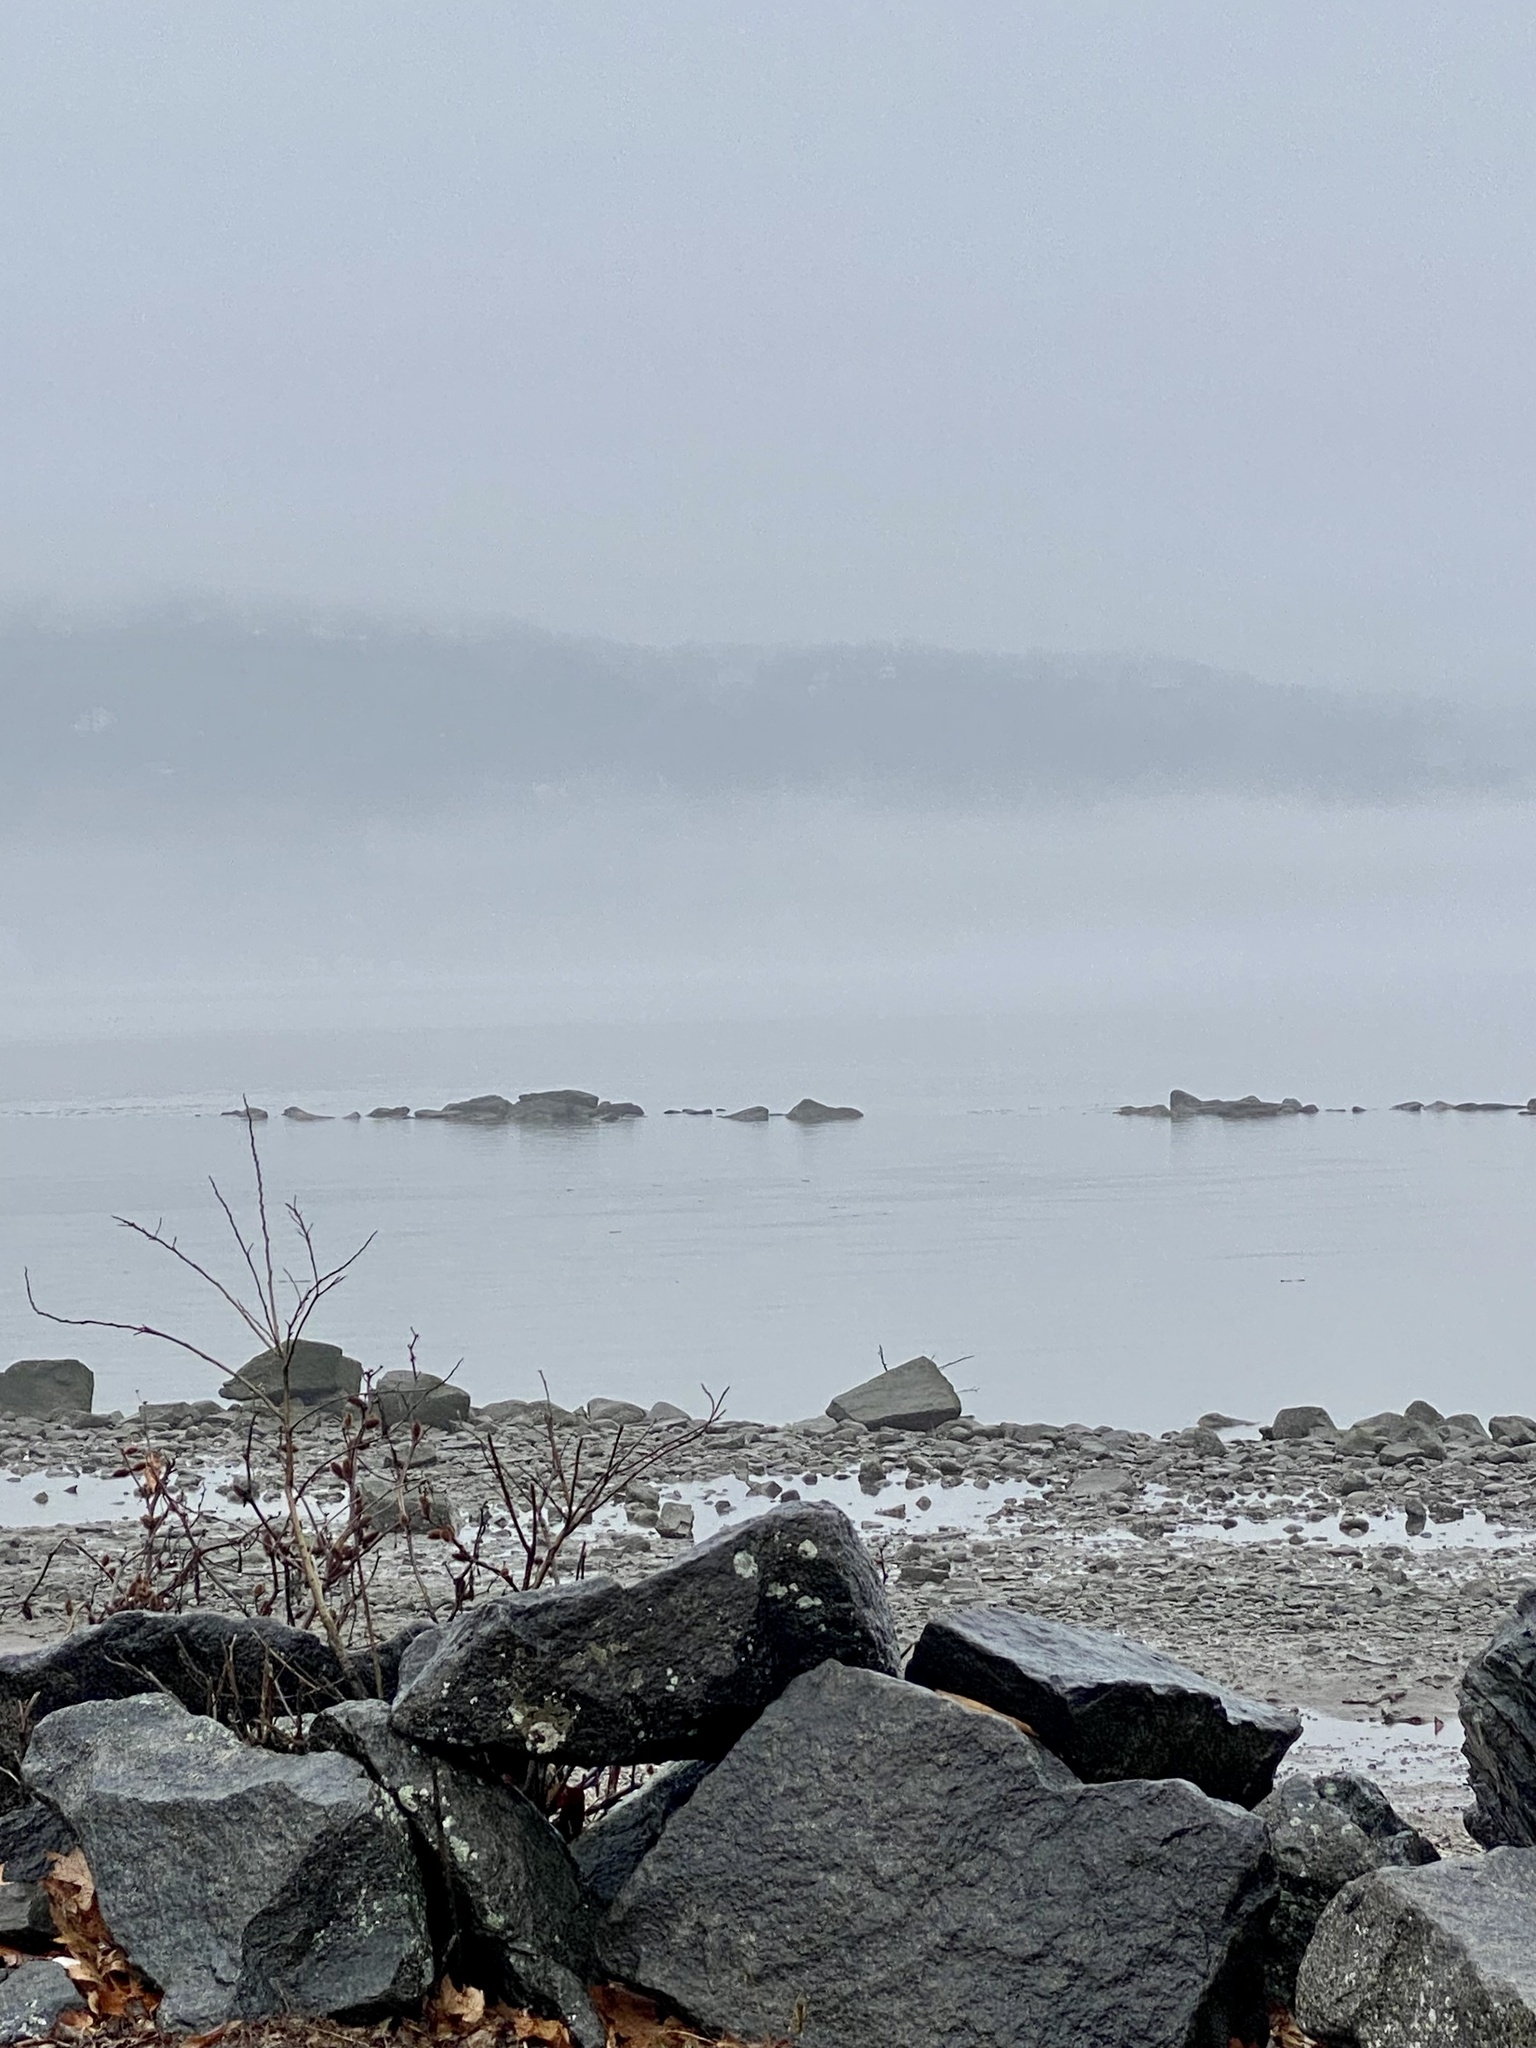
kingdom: Plantae
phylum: Tracheophyta
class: Liliopsida
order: Poales
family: Poaceae
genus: Phragmites
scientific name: Phragmites australis
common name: Common reed
